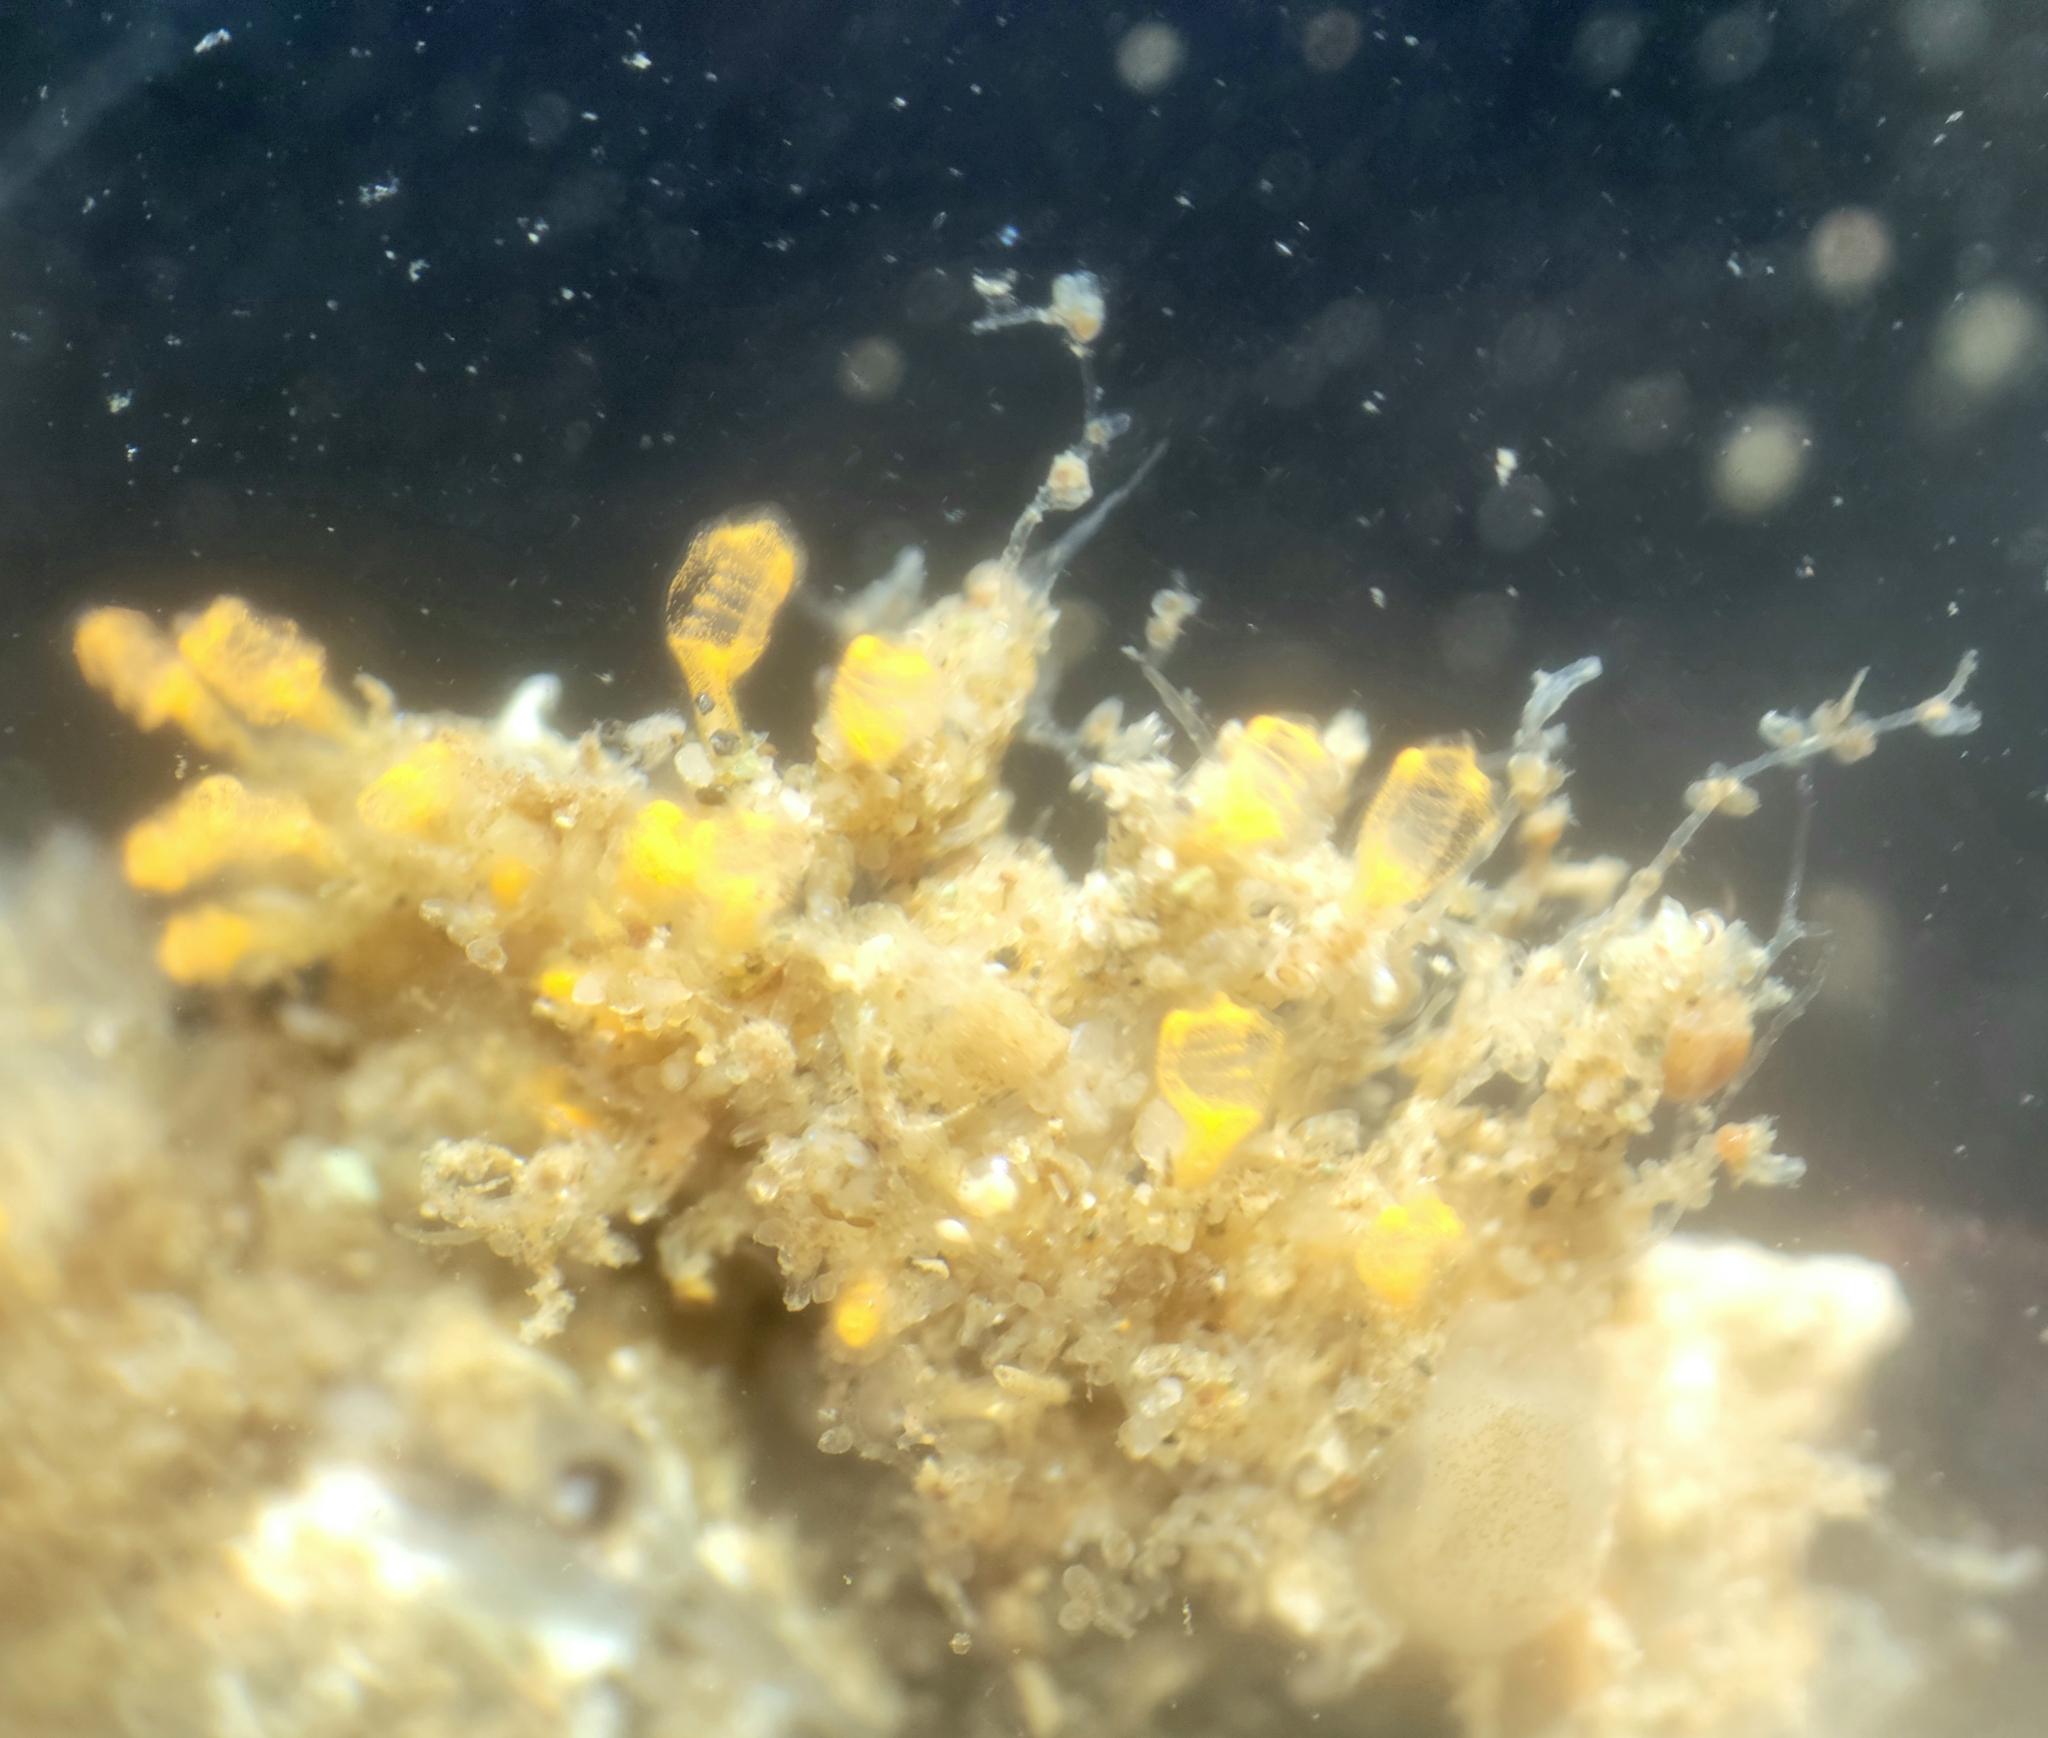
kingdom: Animalia
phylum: Chordata
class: Ascidiacea
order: Aplousobranchia
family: Clavelinidae
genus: Pycnoclavella
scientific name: Pycnoclavella stanleyi
